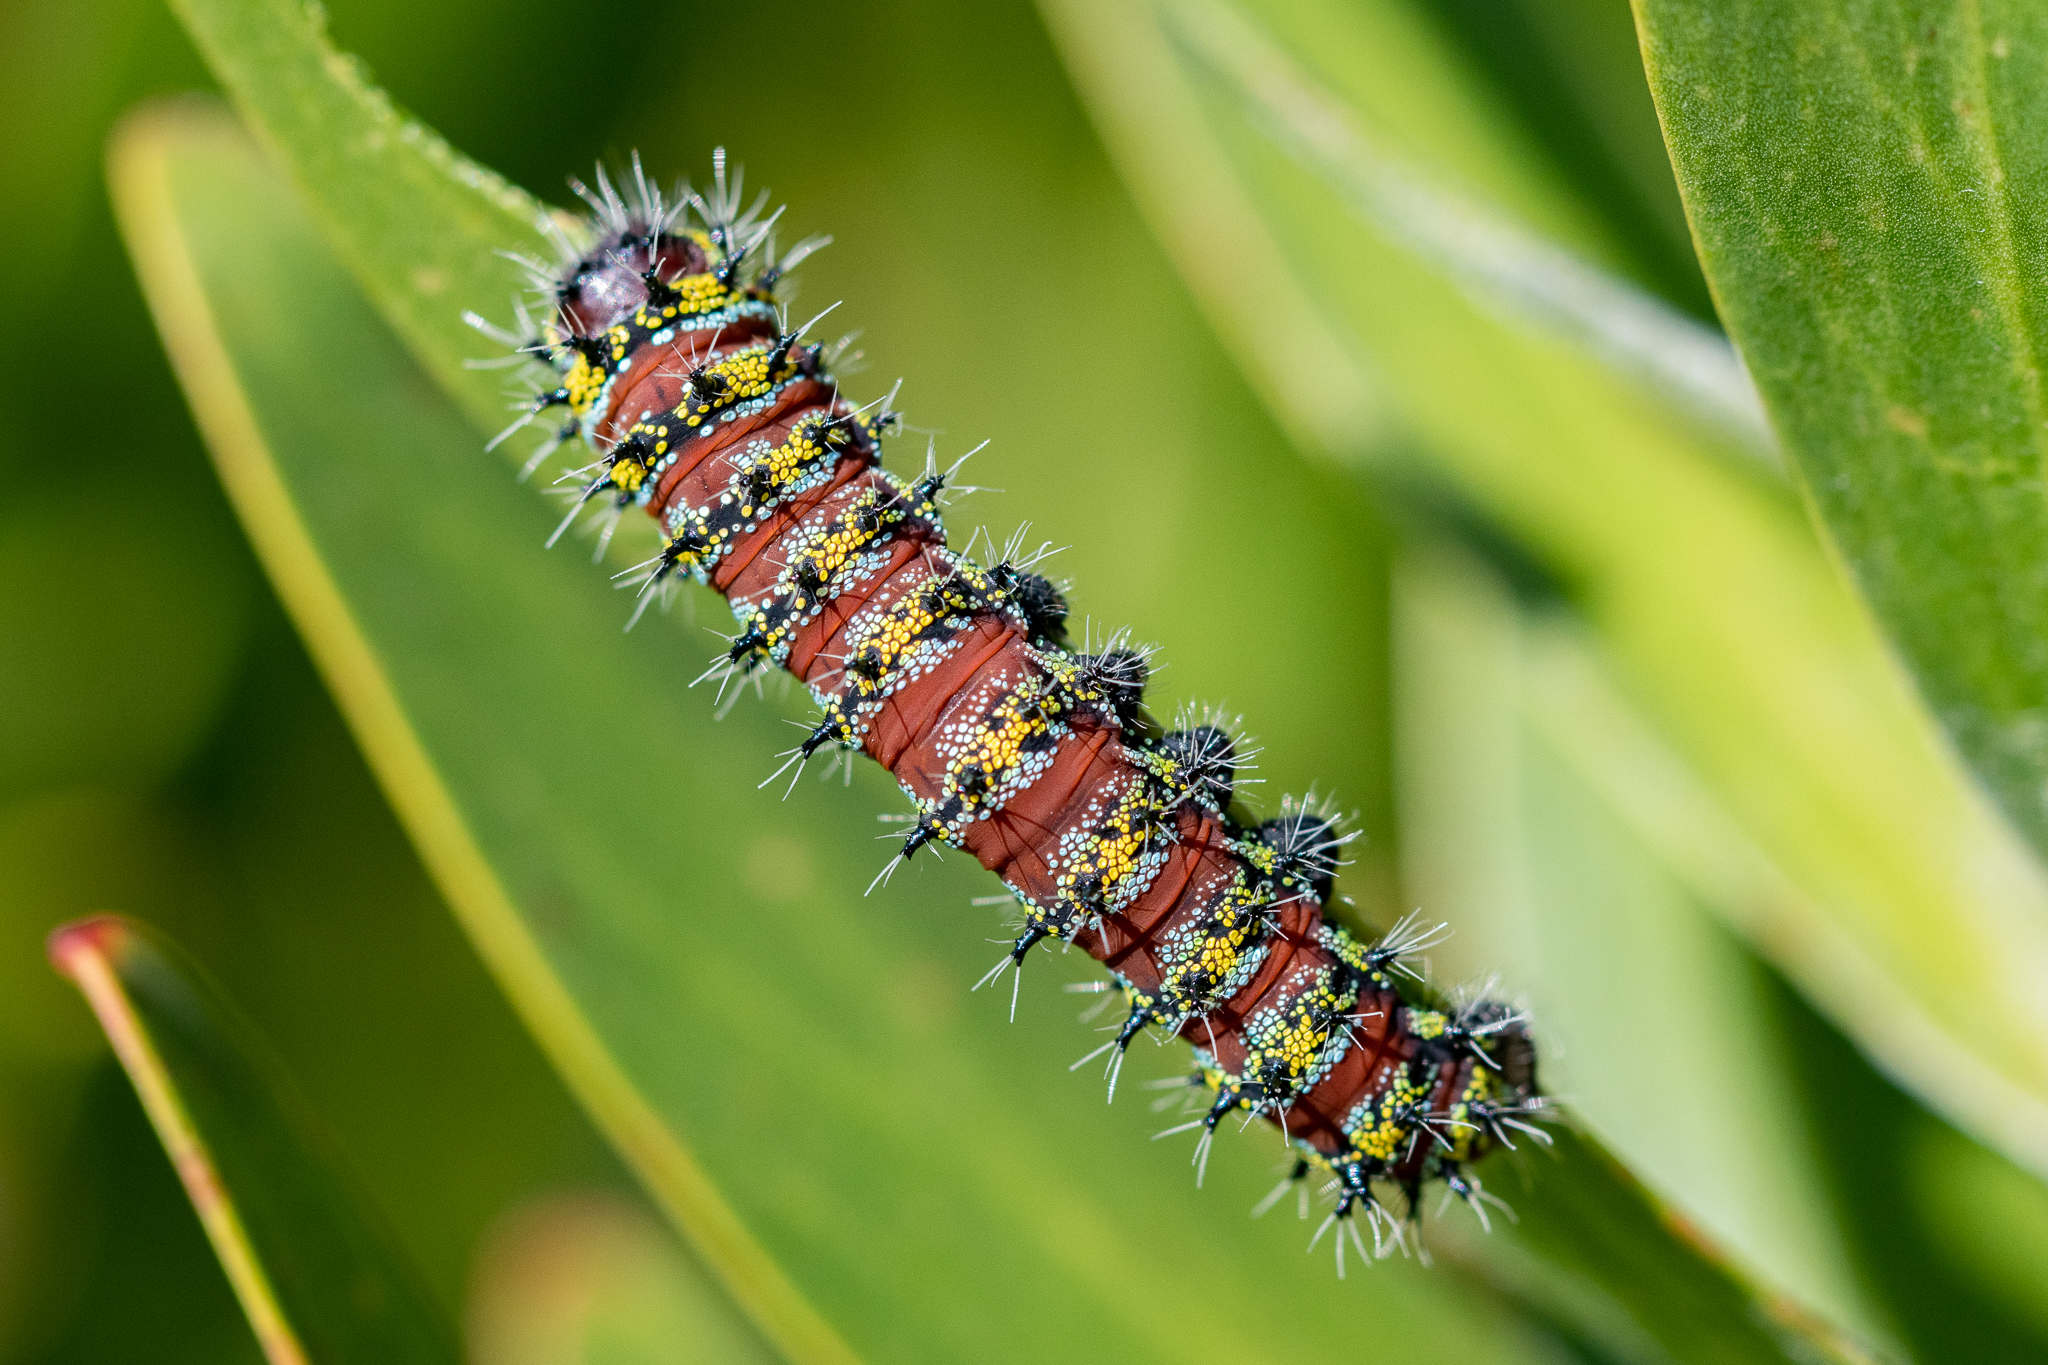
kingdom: Animalia
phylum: Arthropoda
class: Insecta
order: Lepidoptera
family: Saturniidae
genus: Nudaurelia
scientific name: Nudaurelia cytherea
